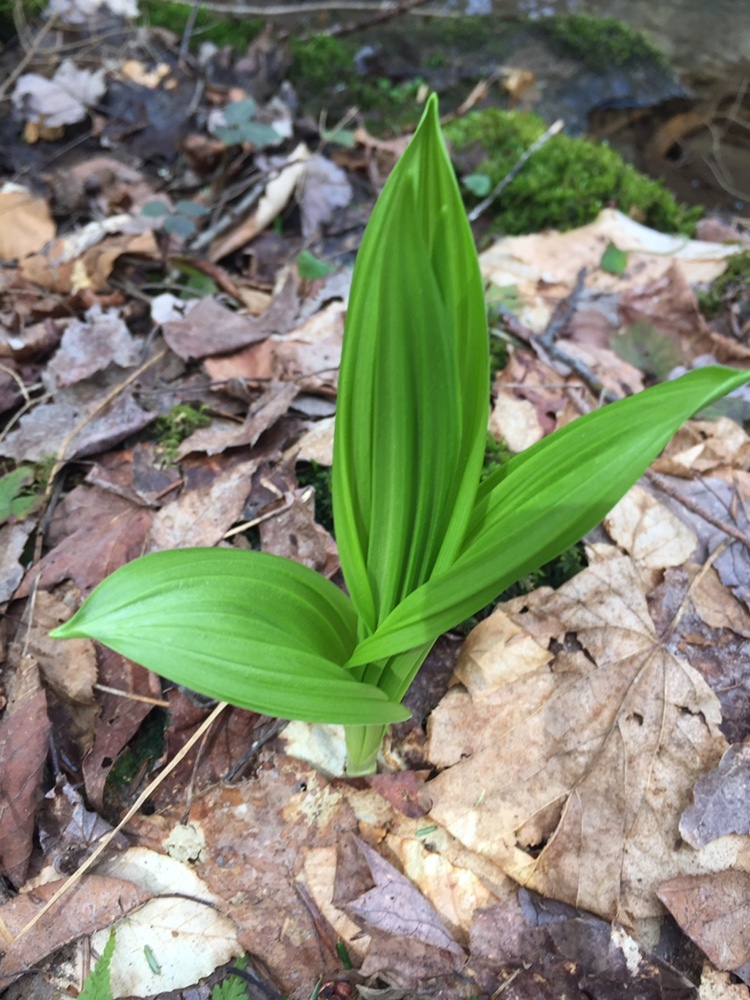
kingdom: Plantae
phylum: Tracheophyta
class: Liliopsida
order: Liliales
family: Melanthiaceae
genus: Veratrum
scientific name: Veratrum viride
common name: American false hellebore
